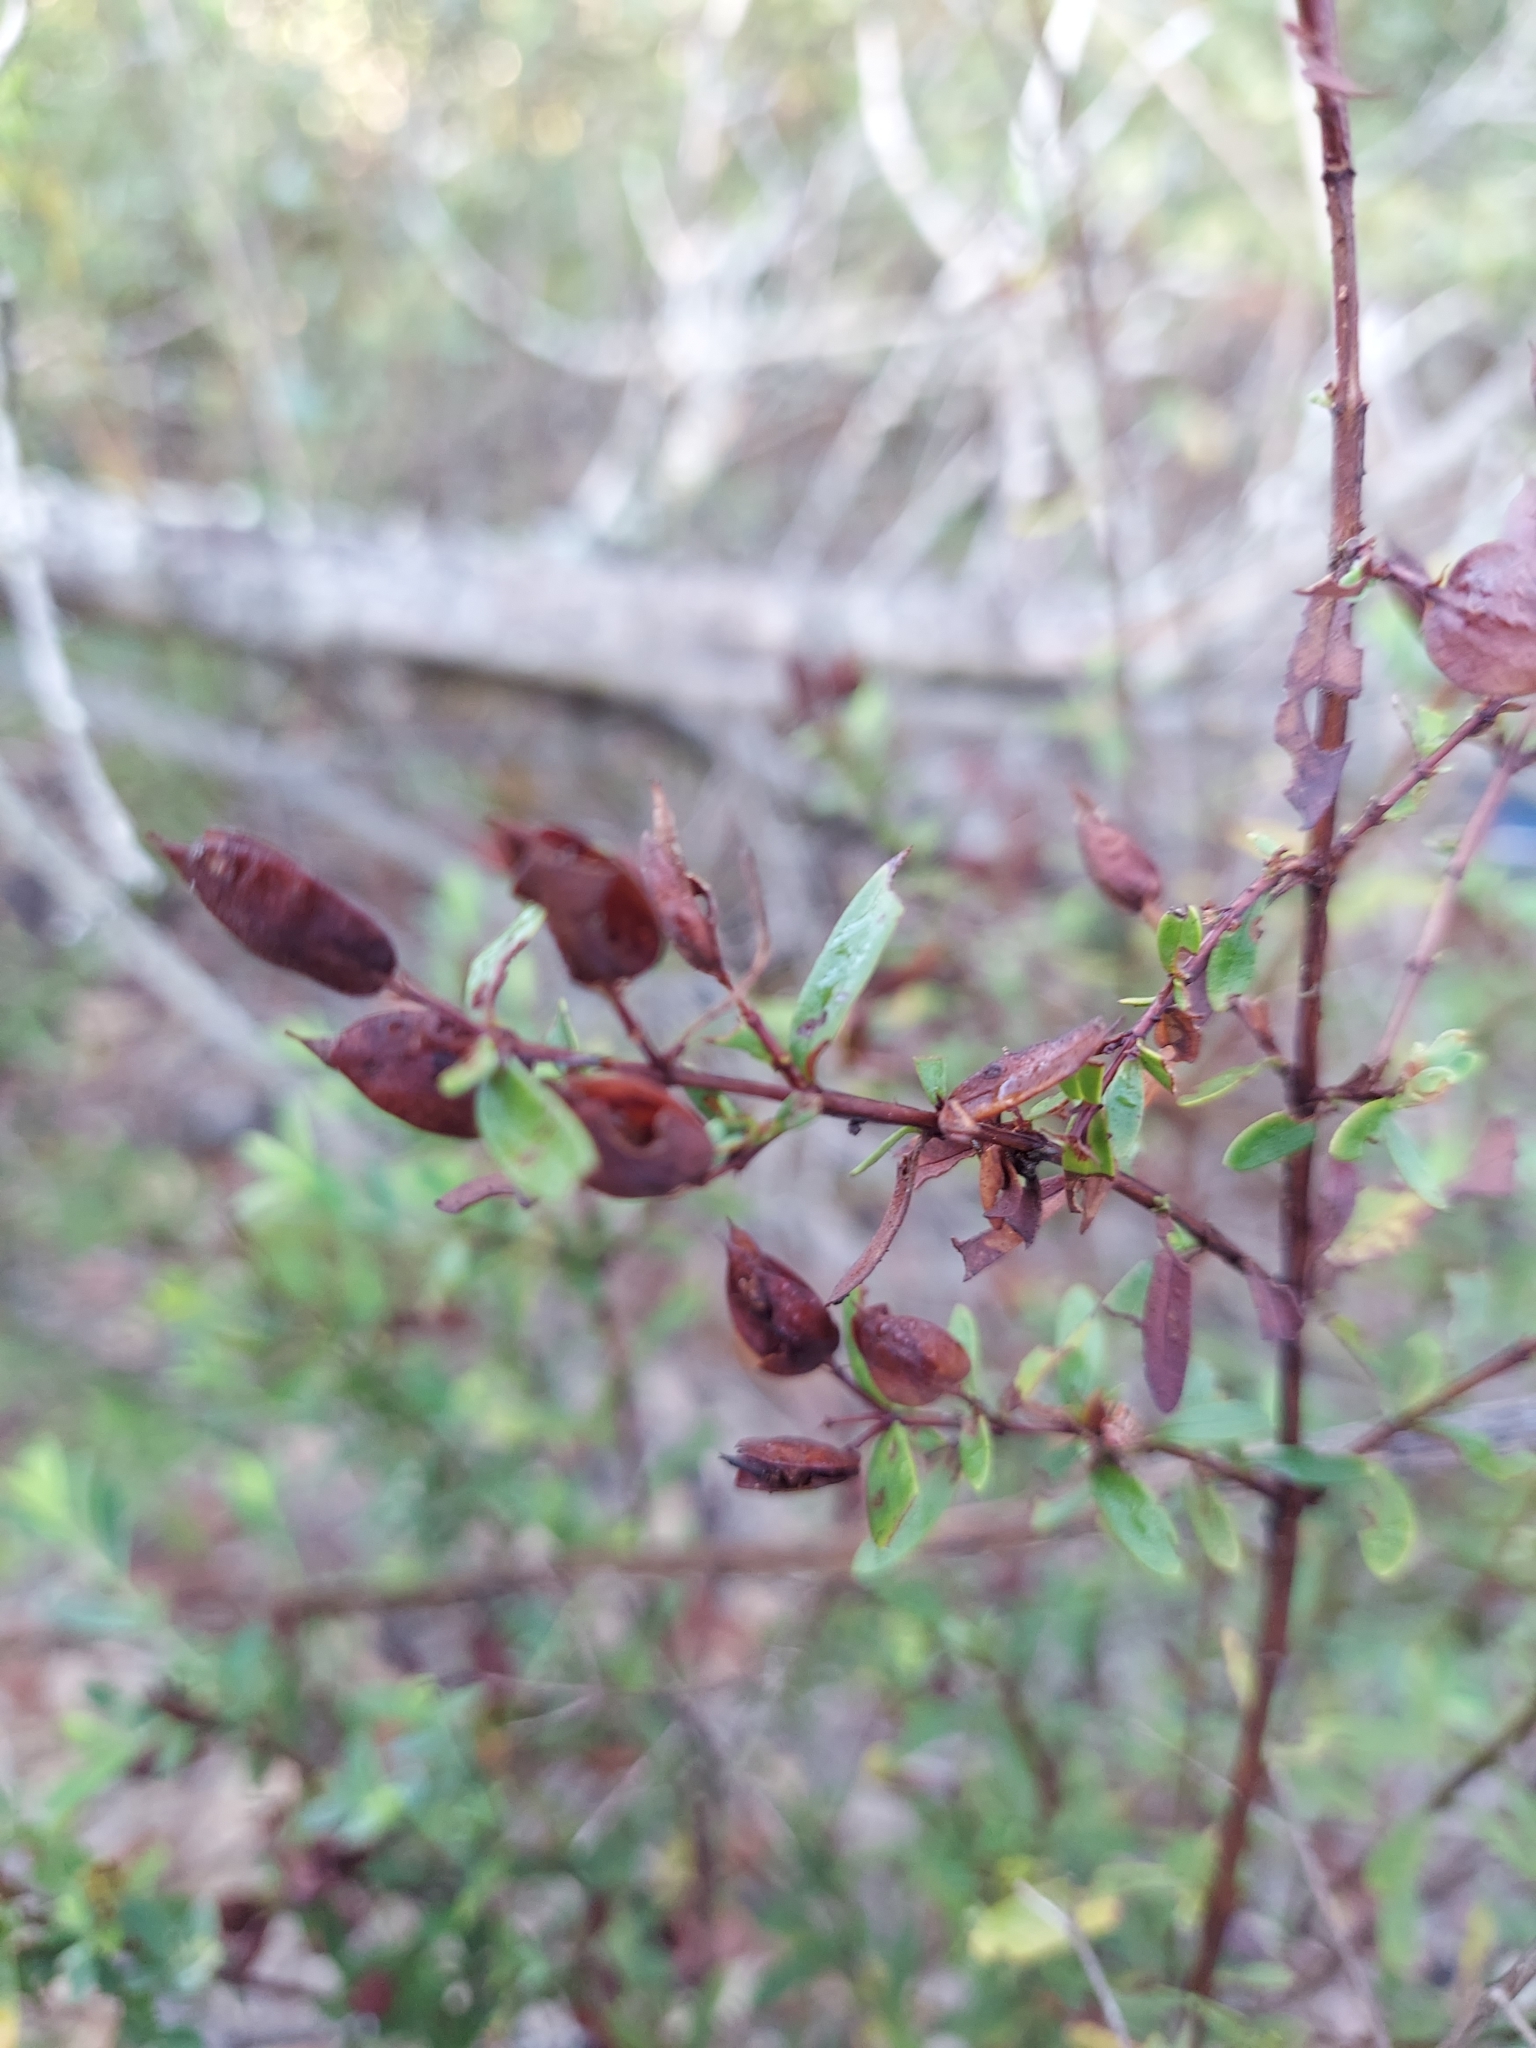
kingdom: Plantae
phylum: Tracheophyta
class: Magnoliopsida
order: Malpighiales
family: Hypericaceae
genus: Hypericum
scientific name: Hypericum hypericoides
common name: St. andrew's cross
